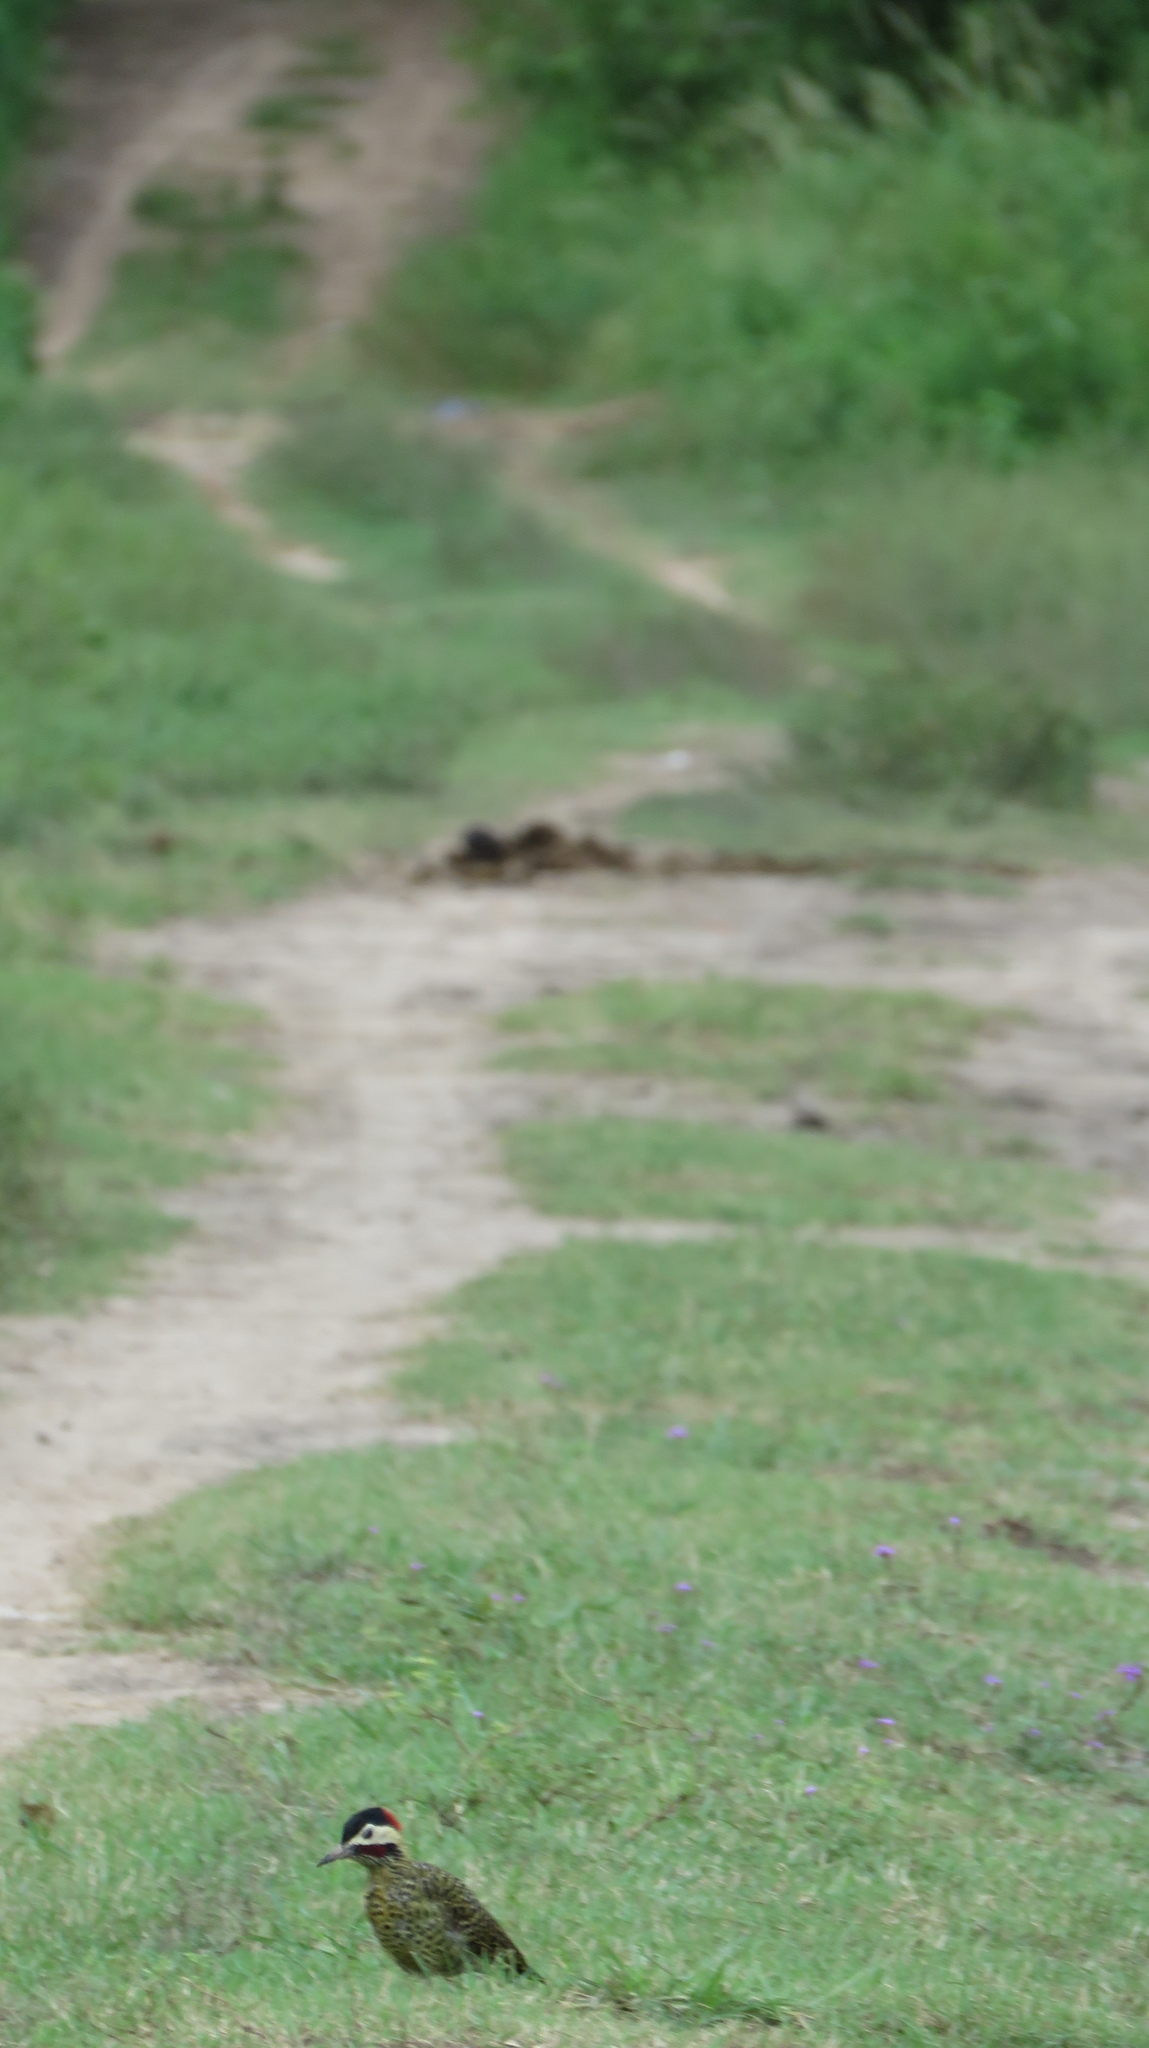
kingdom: Animalia
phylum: Chordata
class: Aves
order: Piciformes
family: Picidae
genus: Colaptes
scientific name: Colaptes melanochloros
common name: Green-barred woodpecker
